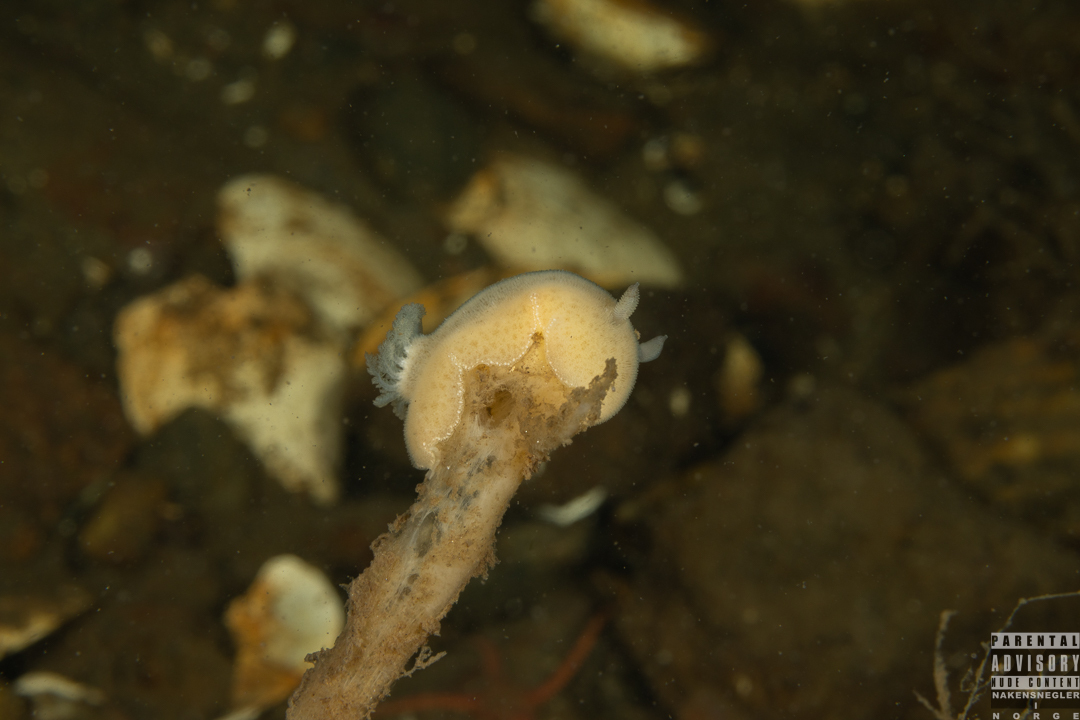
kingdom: Animalia
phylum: Mollusca
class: Gastropoda
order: Nudibranchia
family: Discodorididae
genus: Jorunna
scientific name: Jorunna tomentosa
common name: Grey sea slug
